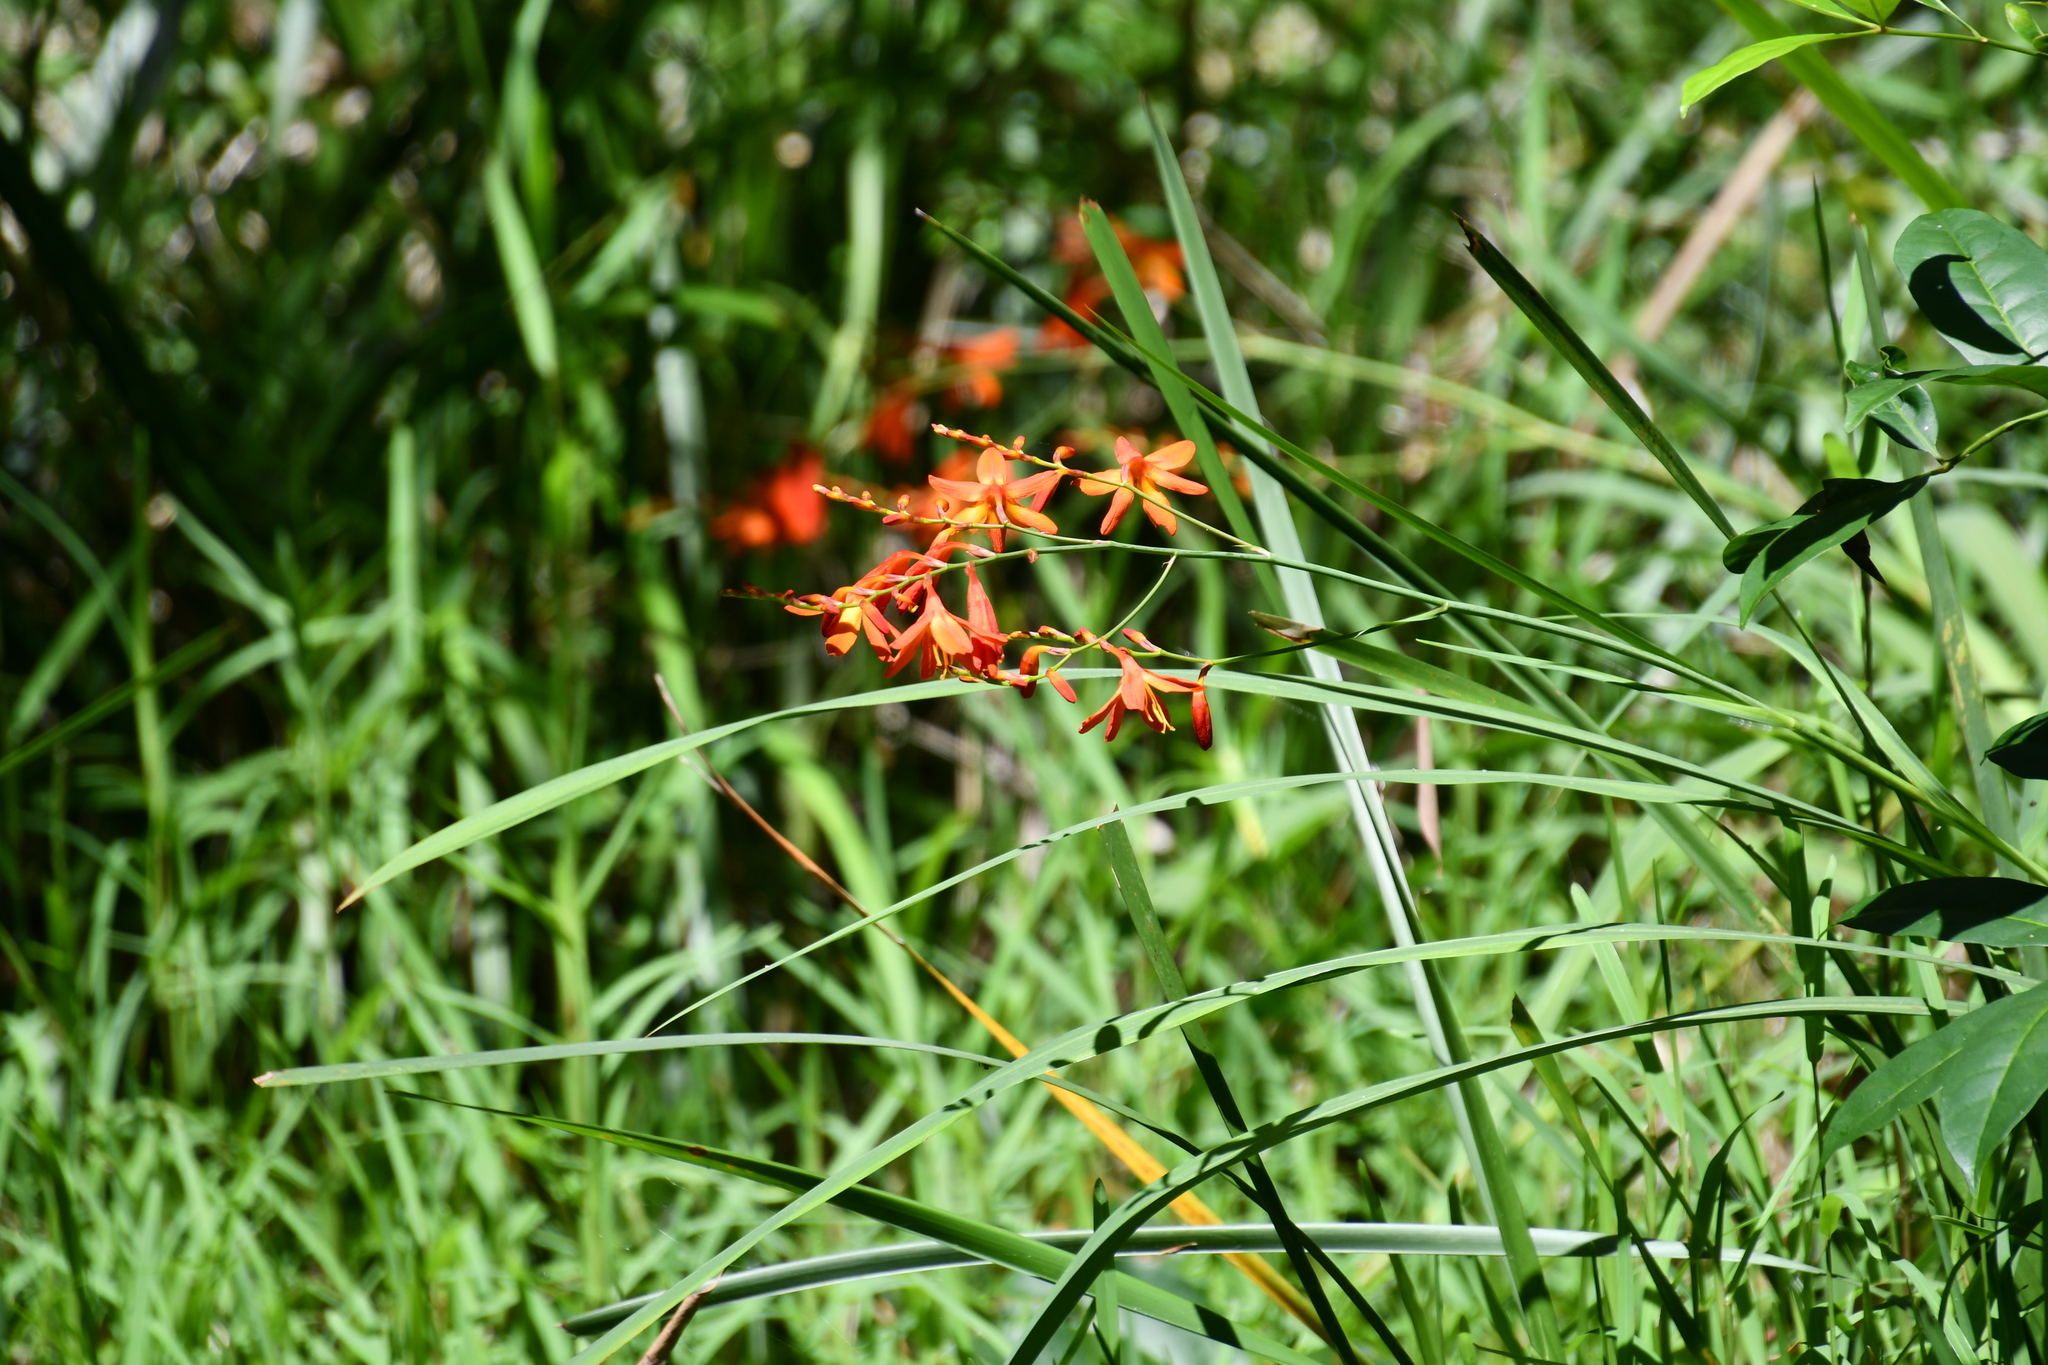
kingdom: Plantae
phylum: Tracheophyta
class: Liliopsida
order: Asparagales
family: Iridaceae
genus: Crocosmia
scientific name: Crocosmia crocosmiiflora
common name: Montbretia
